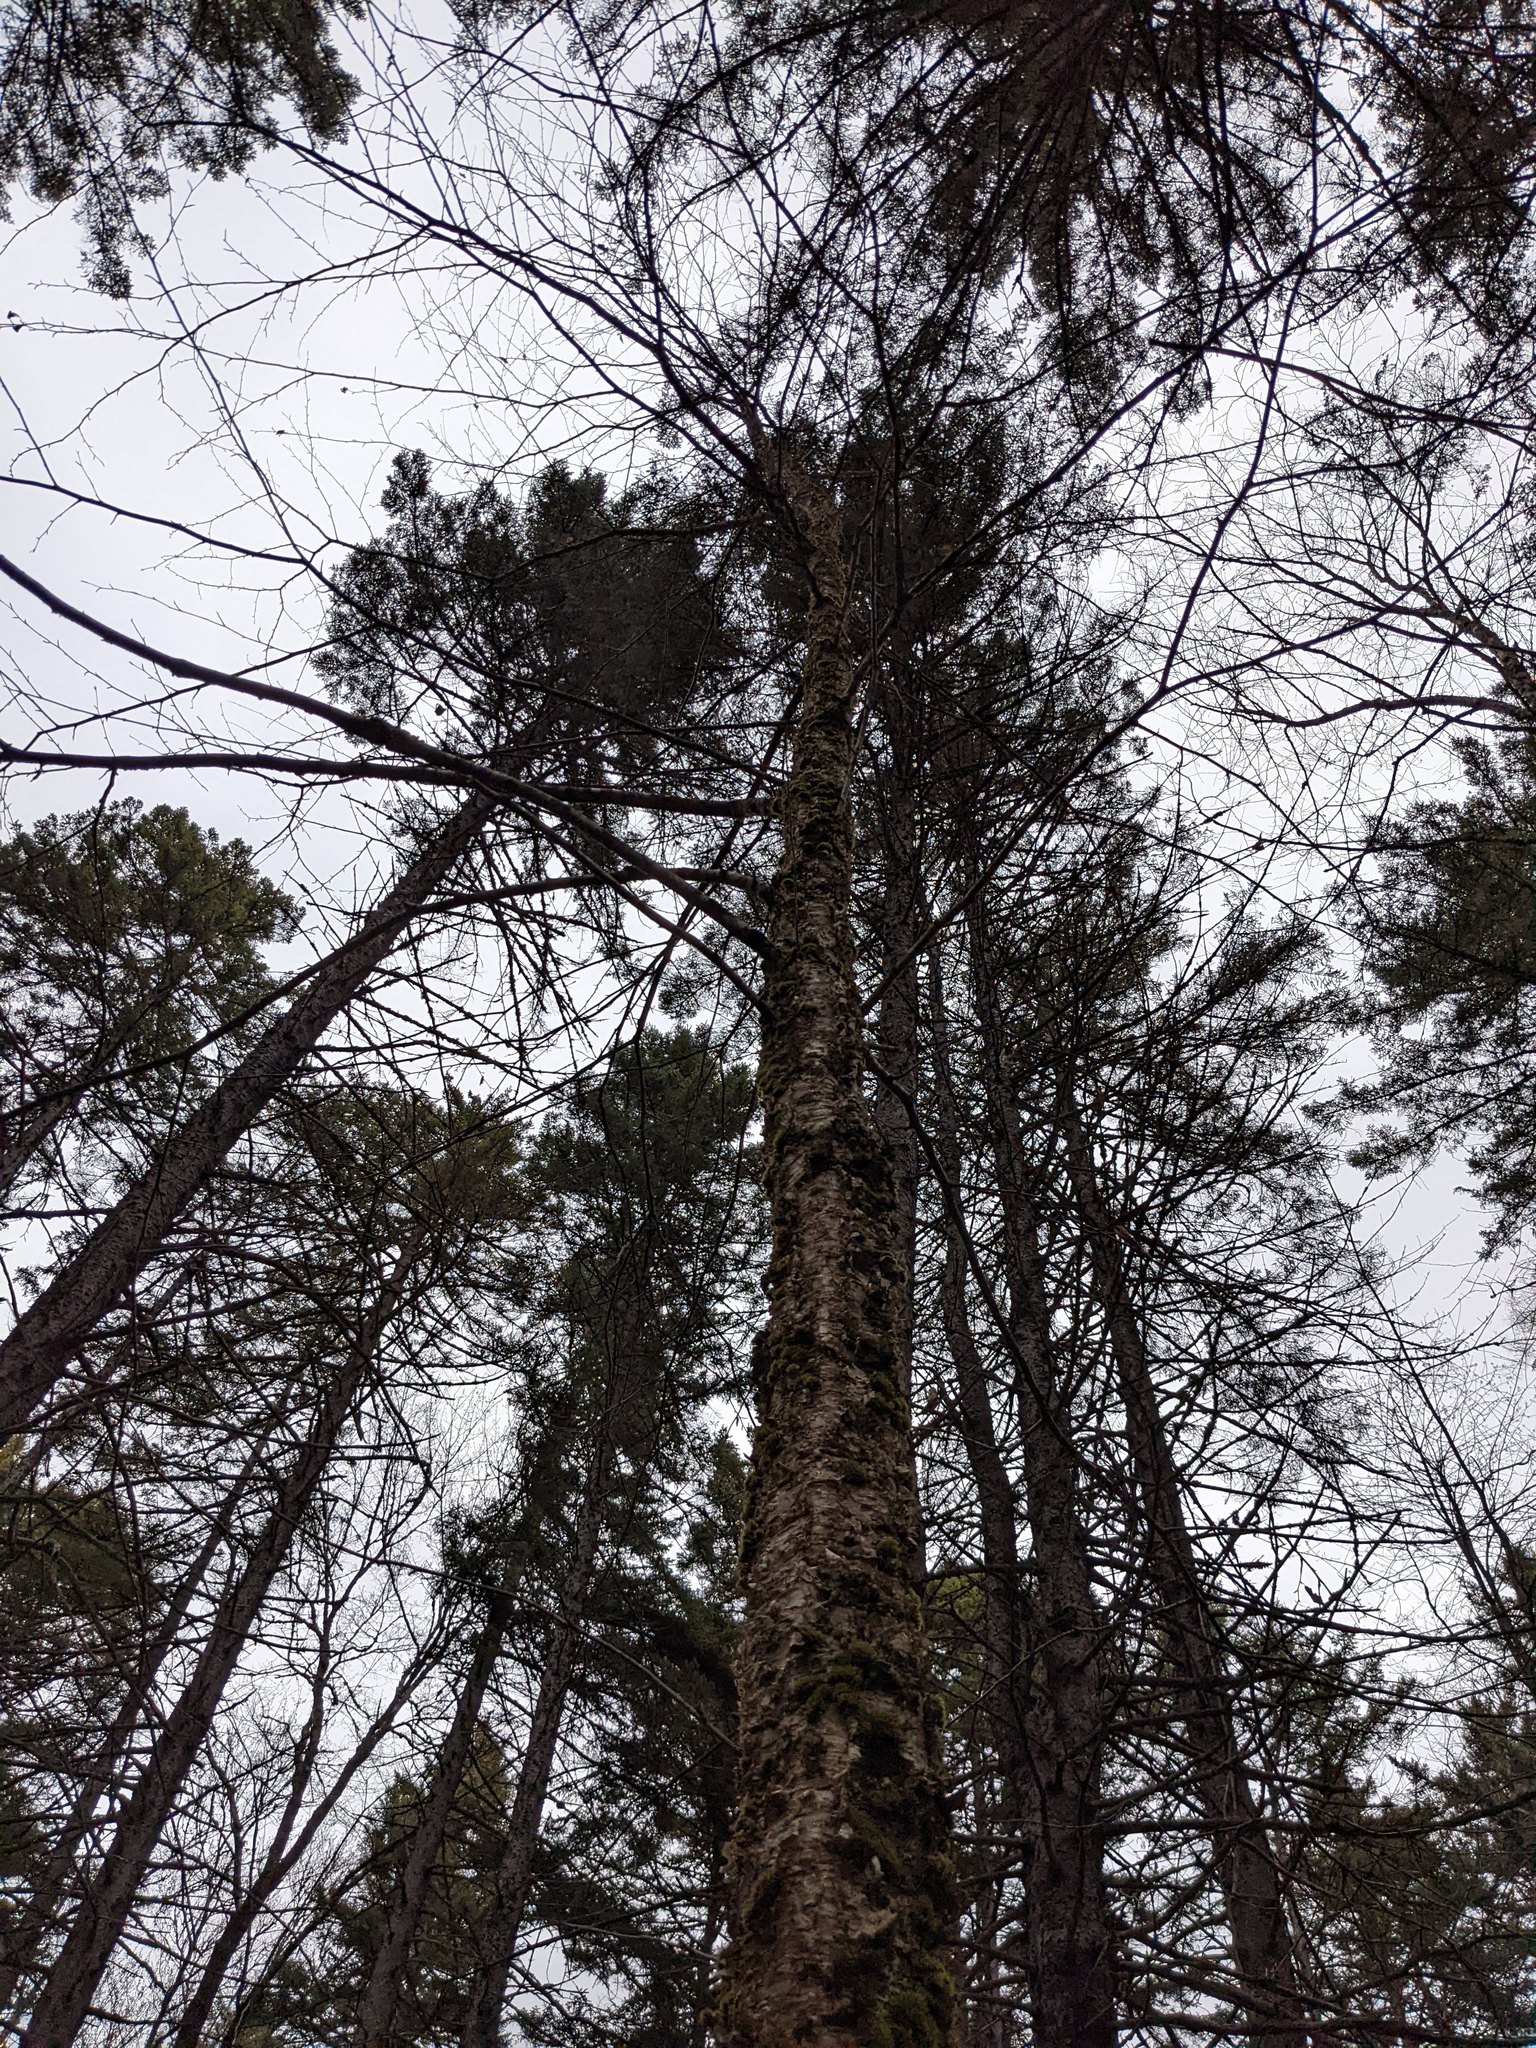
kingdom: Plantae
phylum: Tracheophyta
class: Magnoliopsida
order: Fagales
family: Betulaceae
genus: Betula
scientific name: Betula alleghaniensis
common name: Yellow birch
